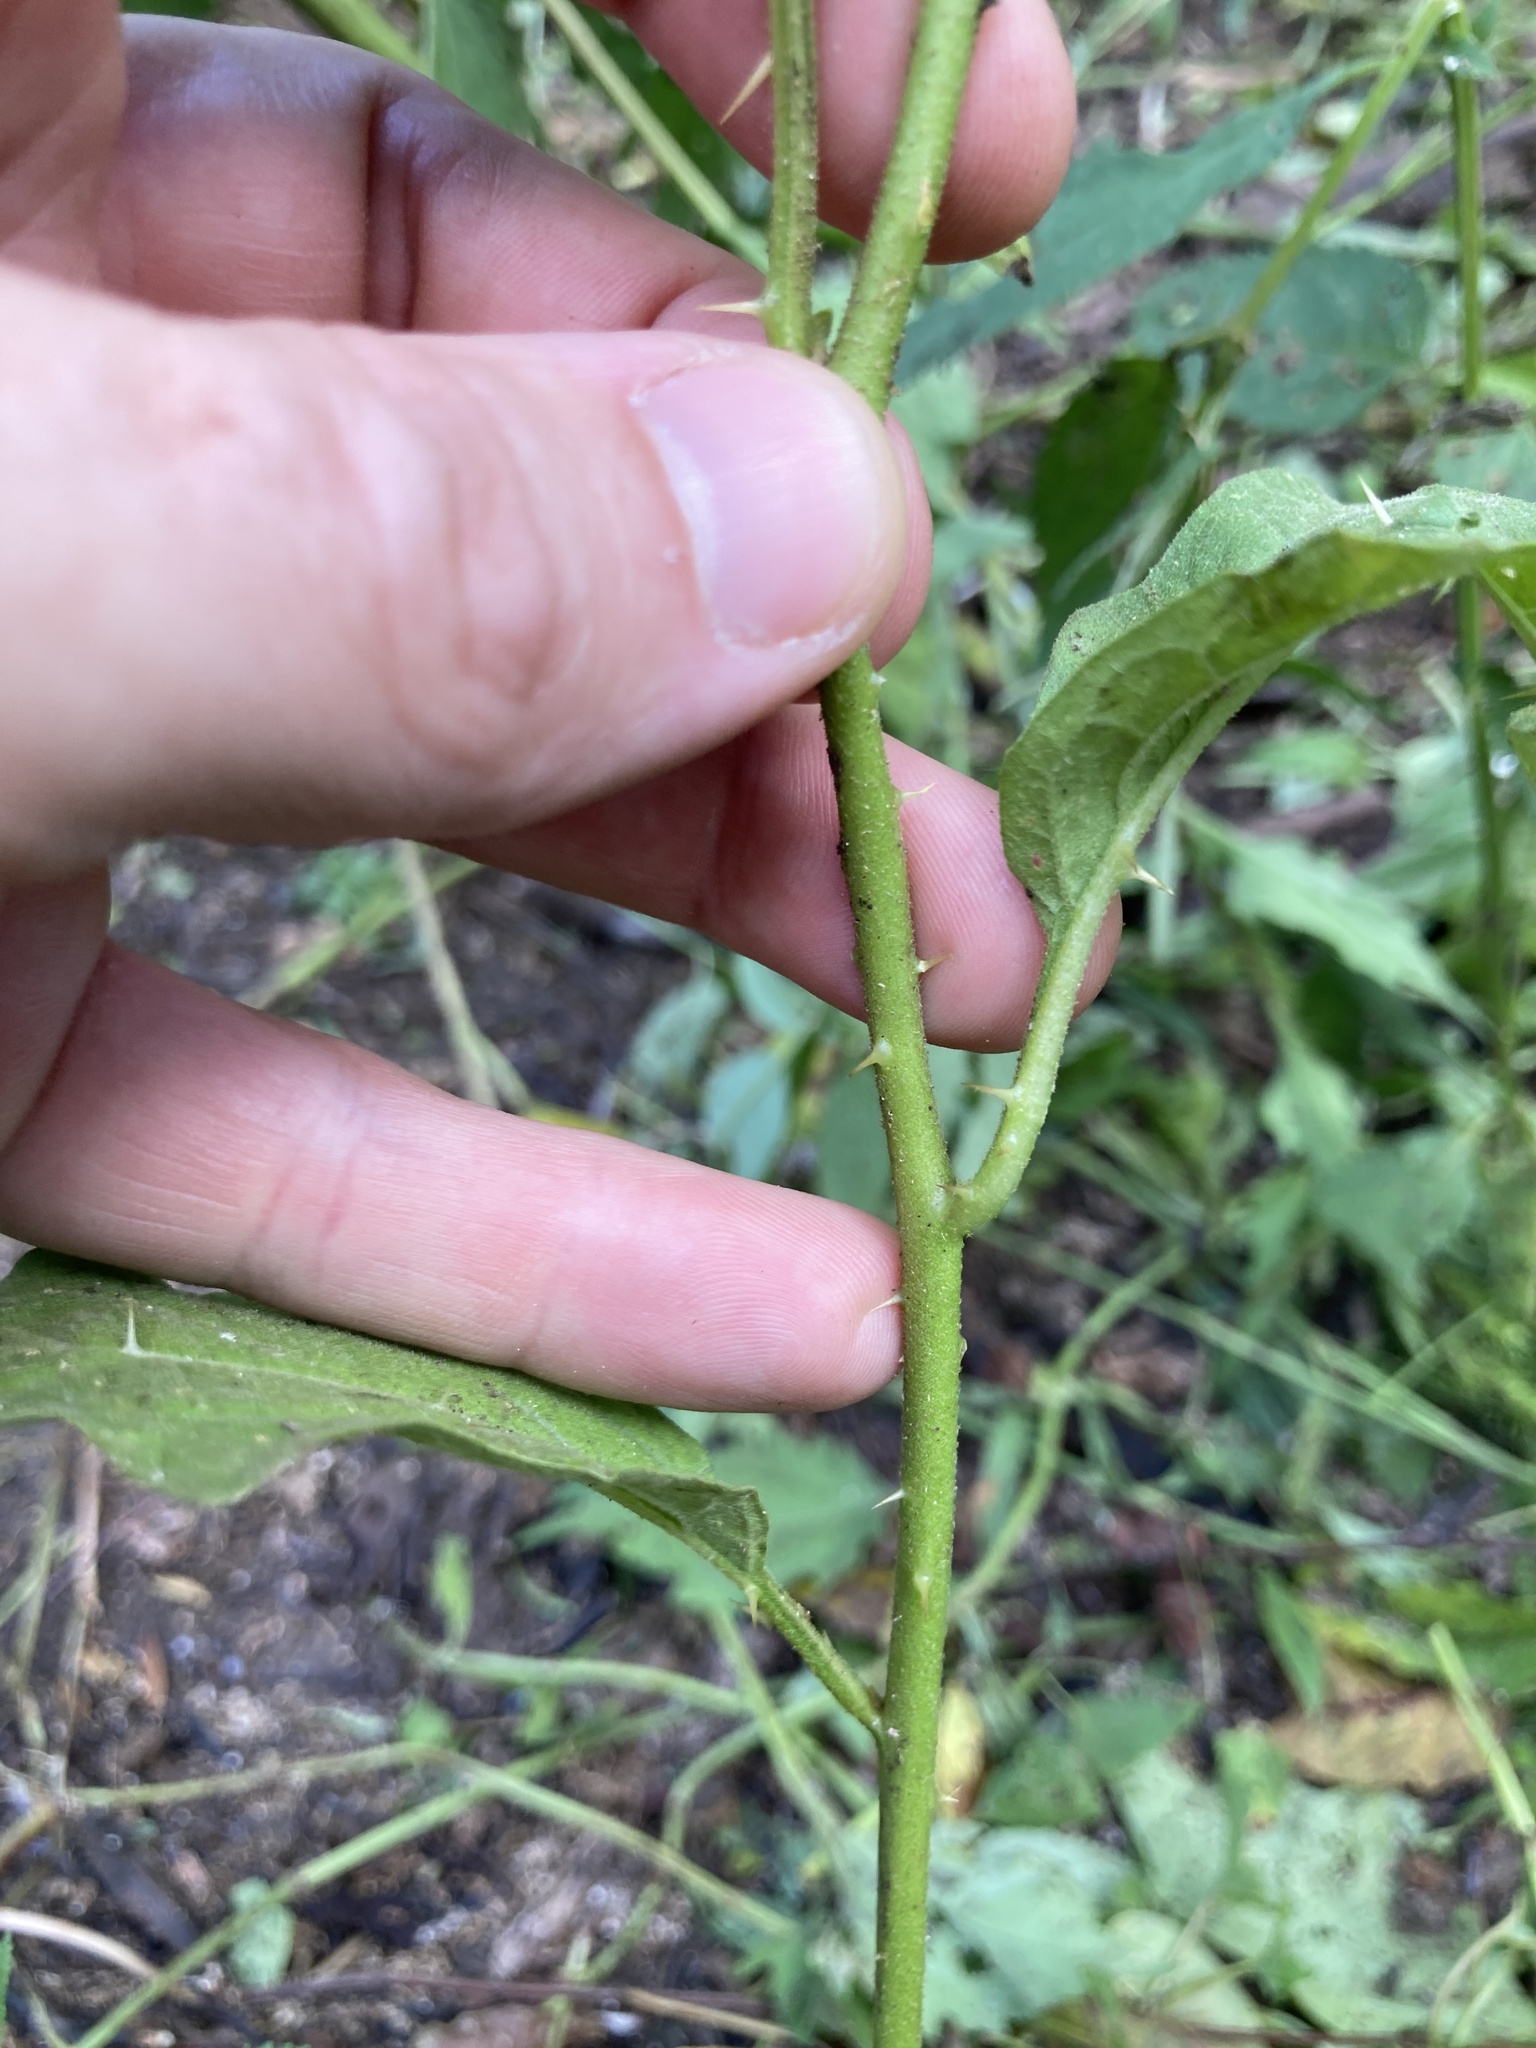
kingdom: Plantae
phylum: Tracheophyta
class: Magnoliopsida
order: Solanales
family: Solanaceae
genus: Solanum
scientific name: Solanum carolinense
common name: Horse-nettle
